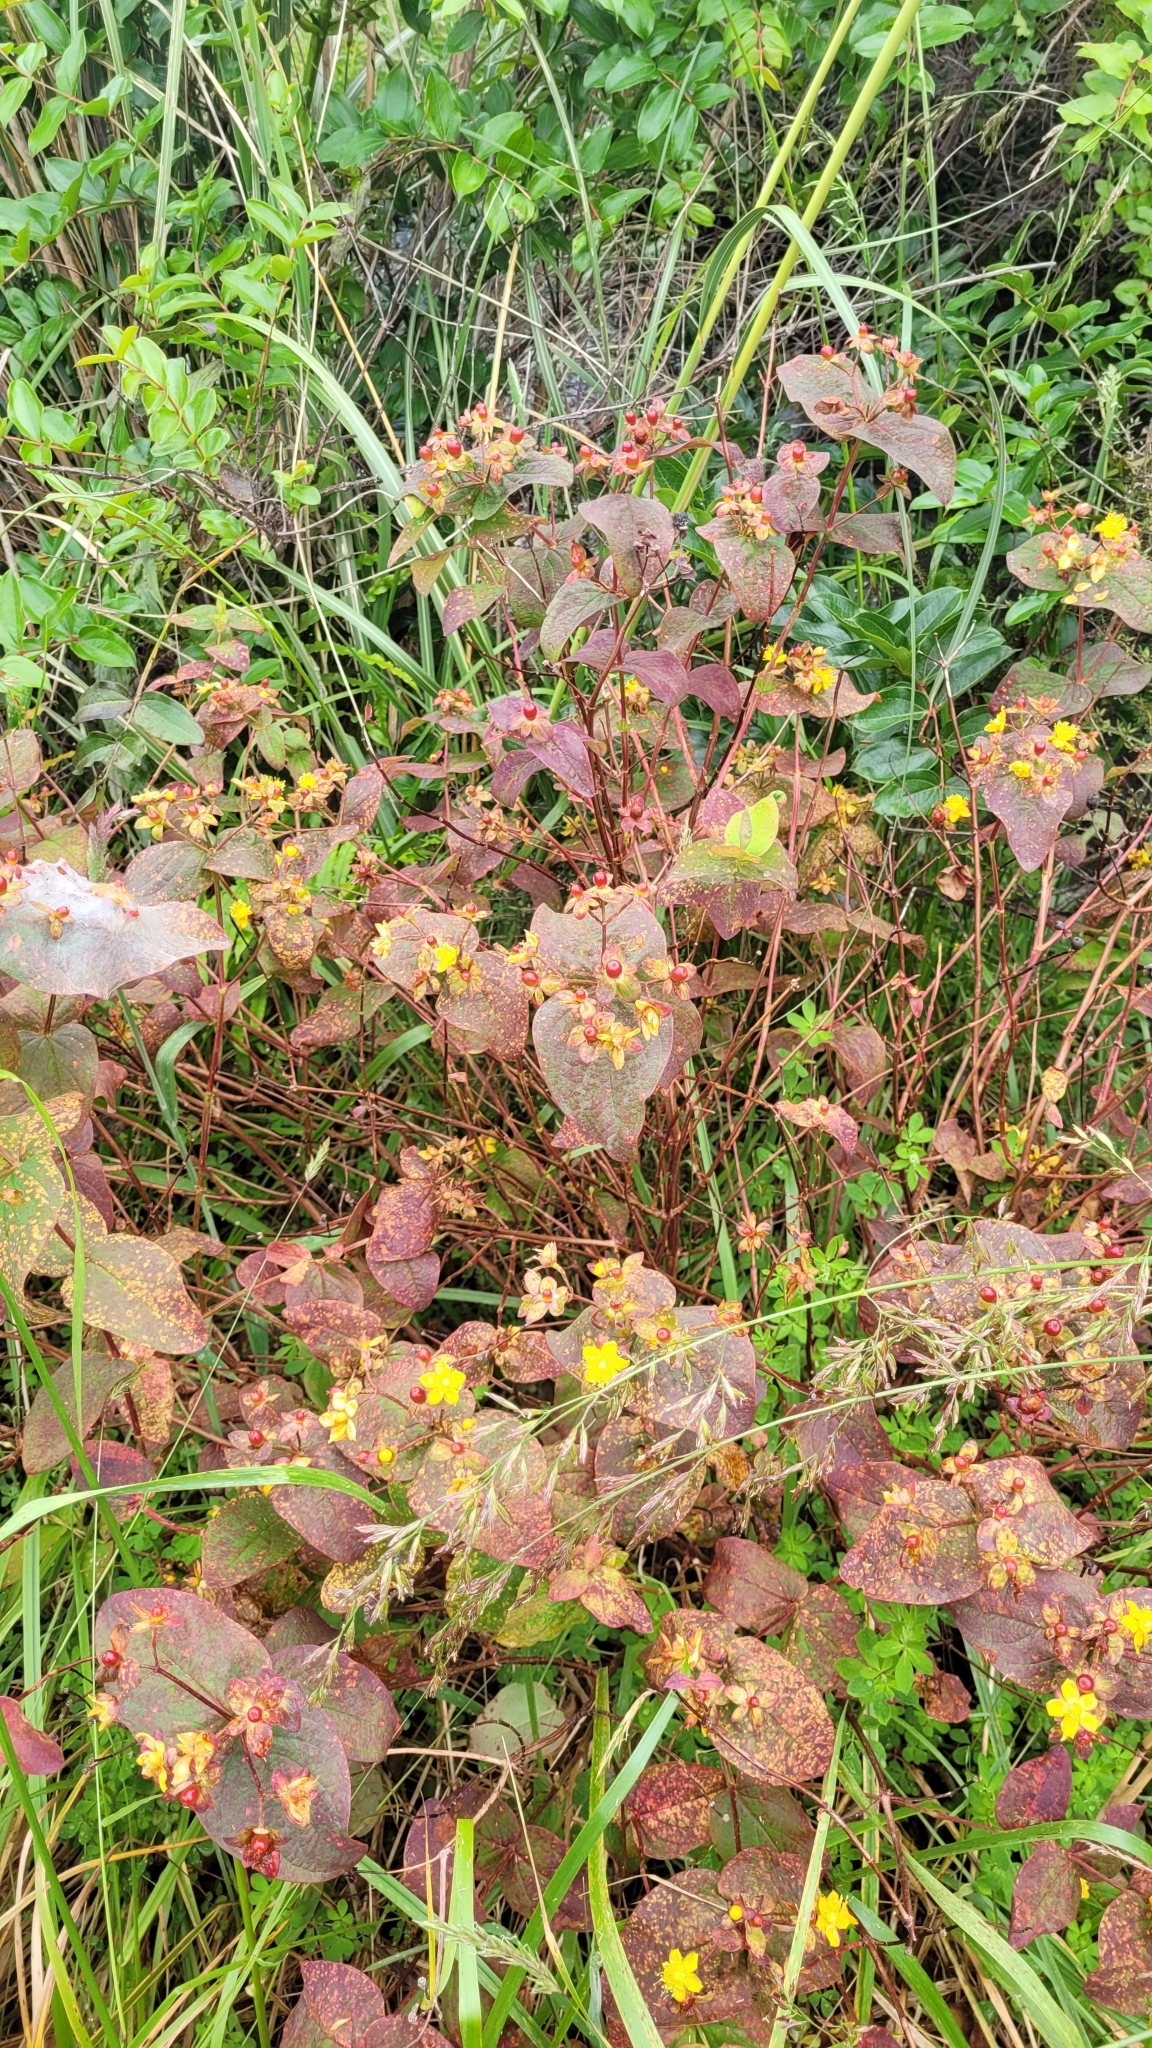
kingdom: Plantae
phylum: Tracheophyta
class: Magnoliopsida
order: Malpighiales
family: Hypericaceae
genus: Hypericum
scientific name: Hypericum androsaemum
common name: Sweet-amber
